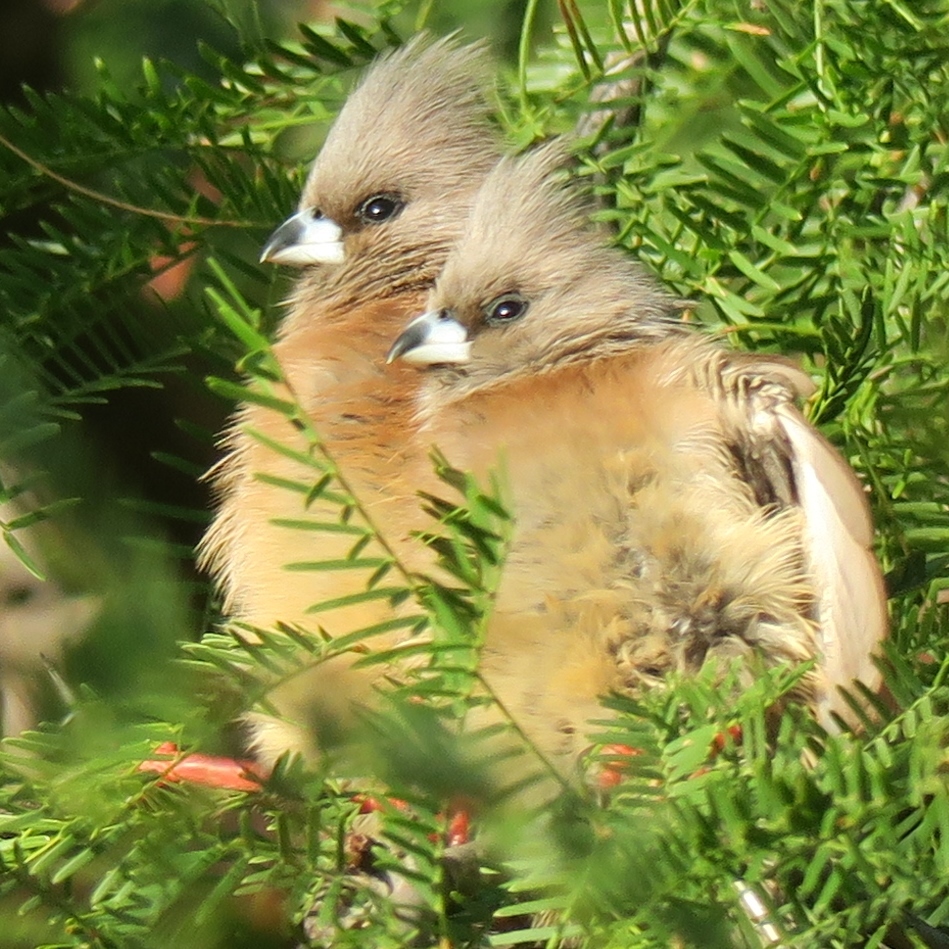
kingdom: Animalia
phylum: Chordata
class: Aves
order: Coliiformes
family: Coliidae
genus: Colius
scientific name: Colius colius
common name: White-backed mousebird
